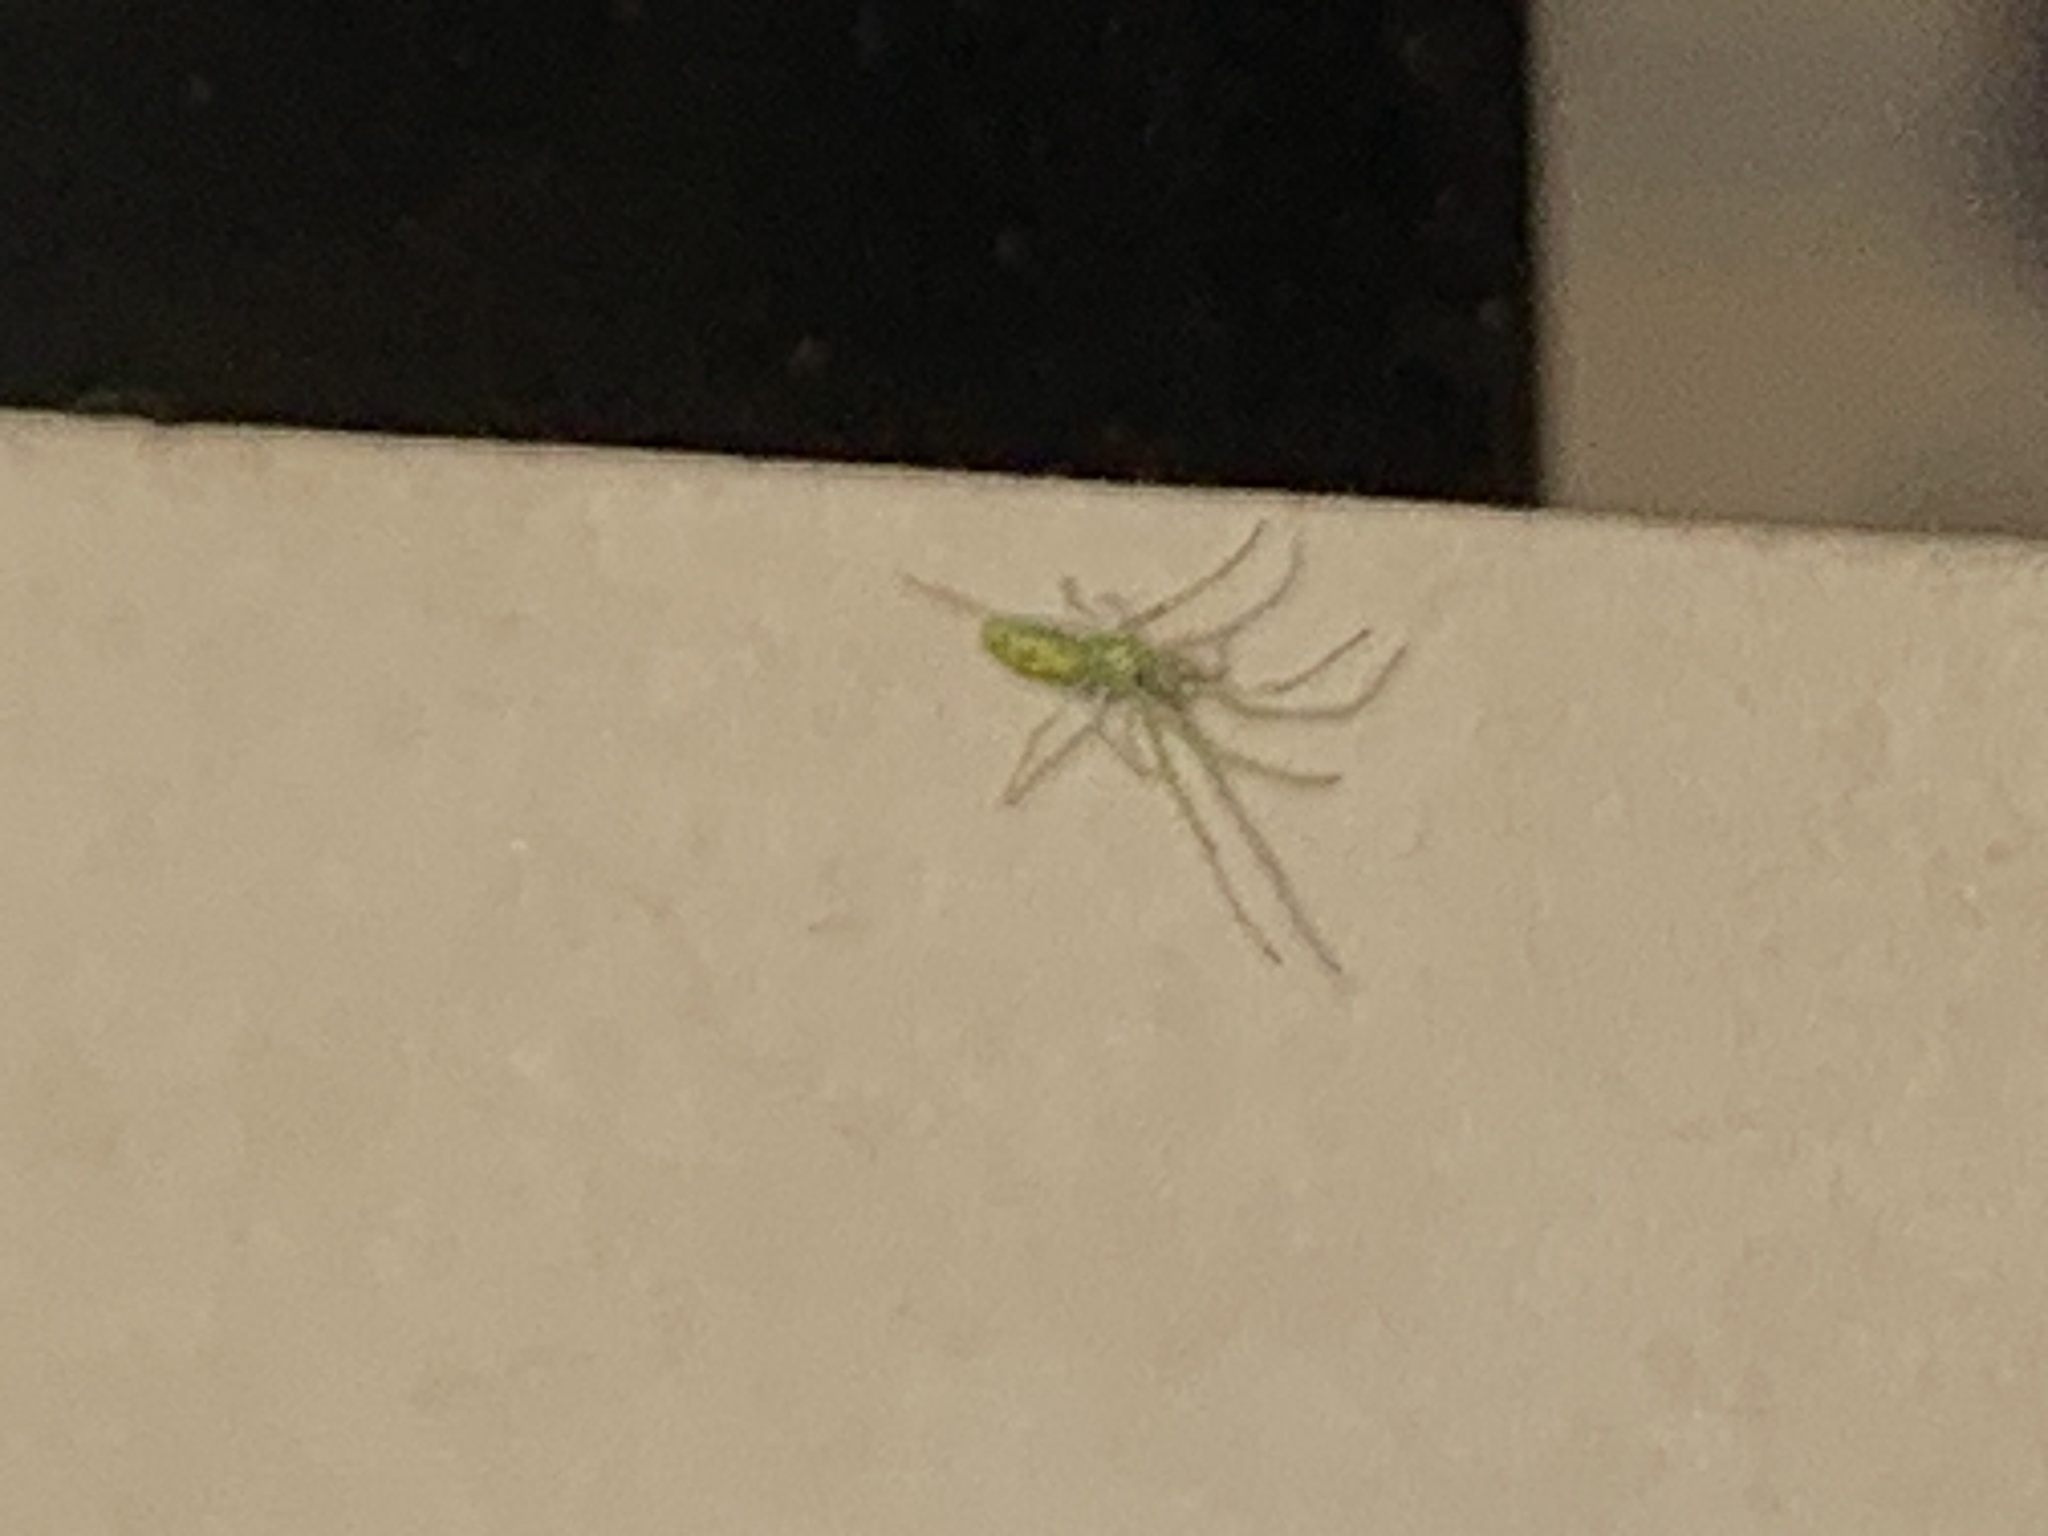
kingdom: Animalia
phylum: Arthropoda
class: Arachnida
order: Araneae
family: Tetragnathidae
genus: Tetragnatha
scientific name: Tetragnatha viridis
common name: Green long-jawed spider
